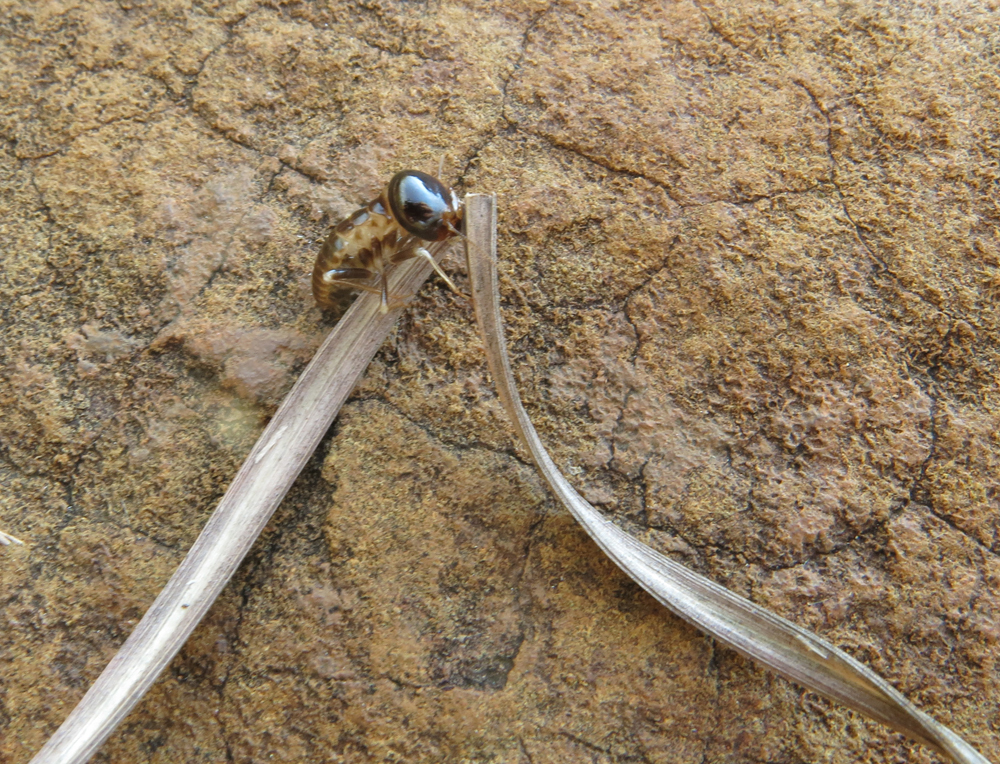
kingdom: Animalia
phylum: Arthropoda
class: Insecta
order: Blattodea
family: Hodotermitidae
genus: Hodotermes
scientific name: Hodotermes mossambicus
